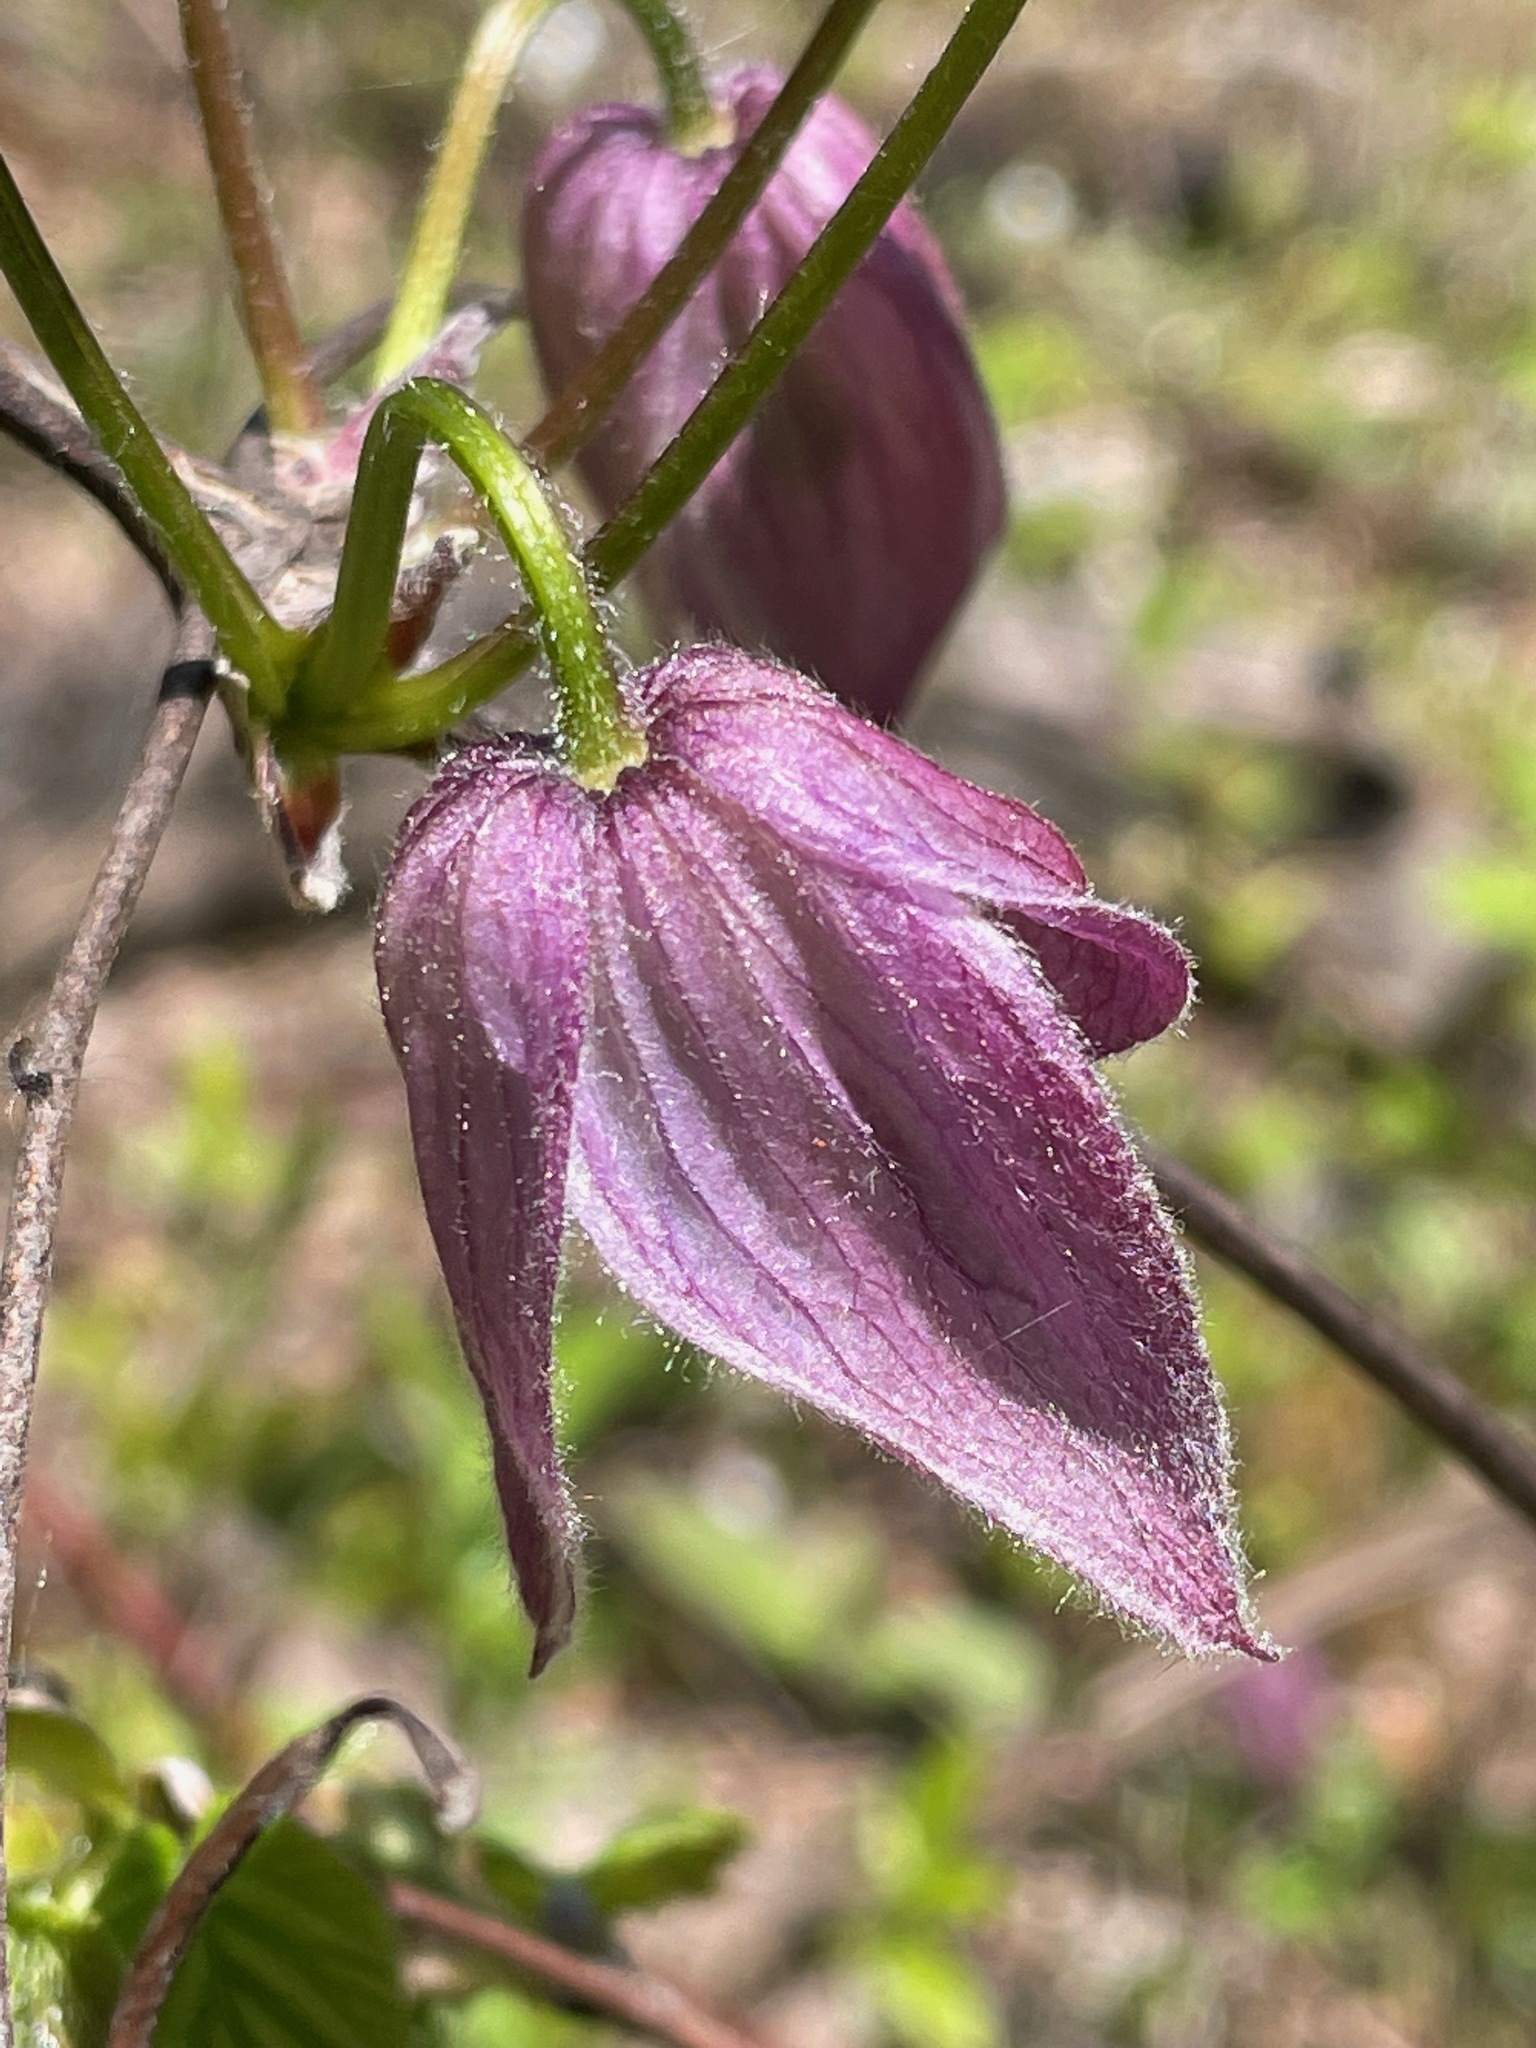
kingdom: Plantae
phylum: Tracheophyta
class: Magnoliopsida
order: Ranunculales
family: Ranunculaceae
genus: Clematis
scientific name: Clematis occidentalis
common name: Purple clematis
